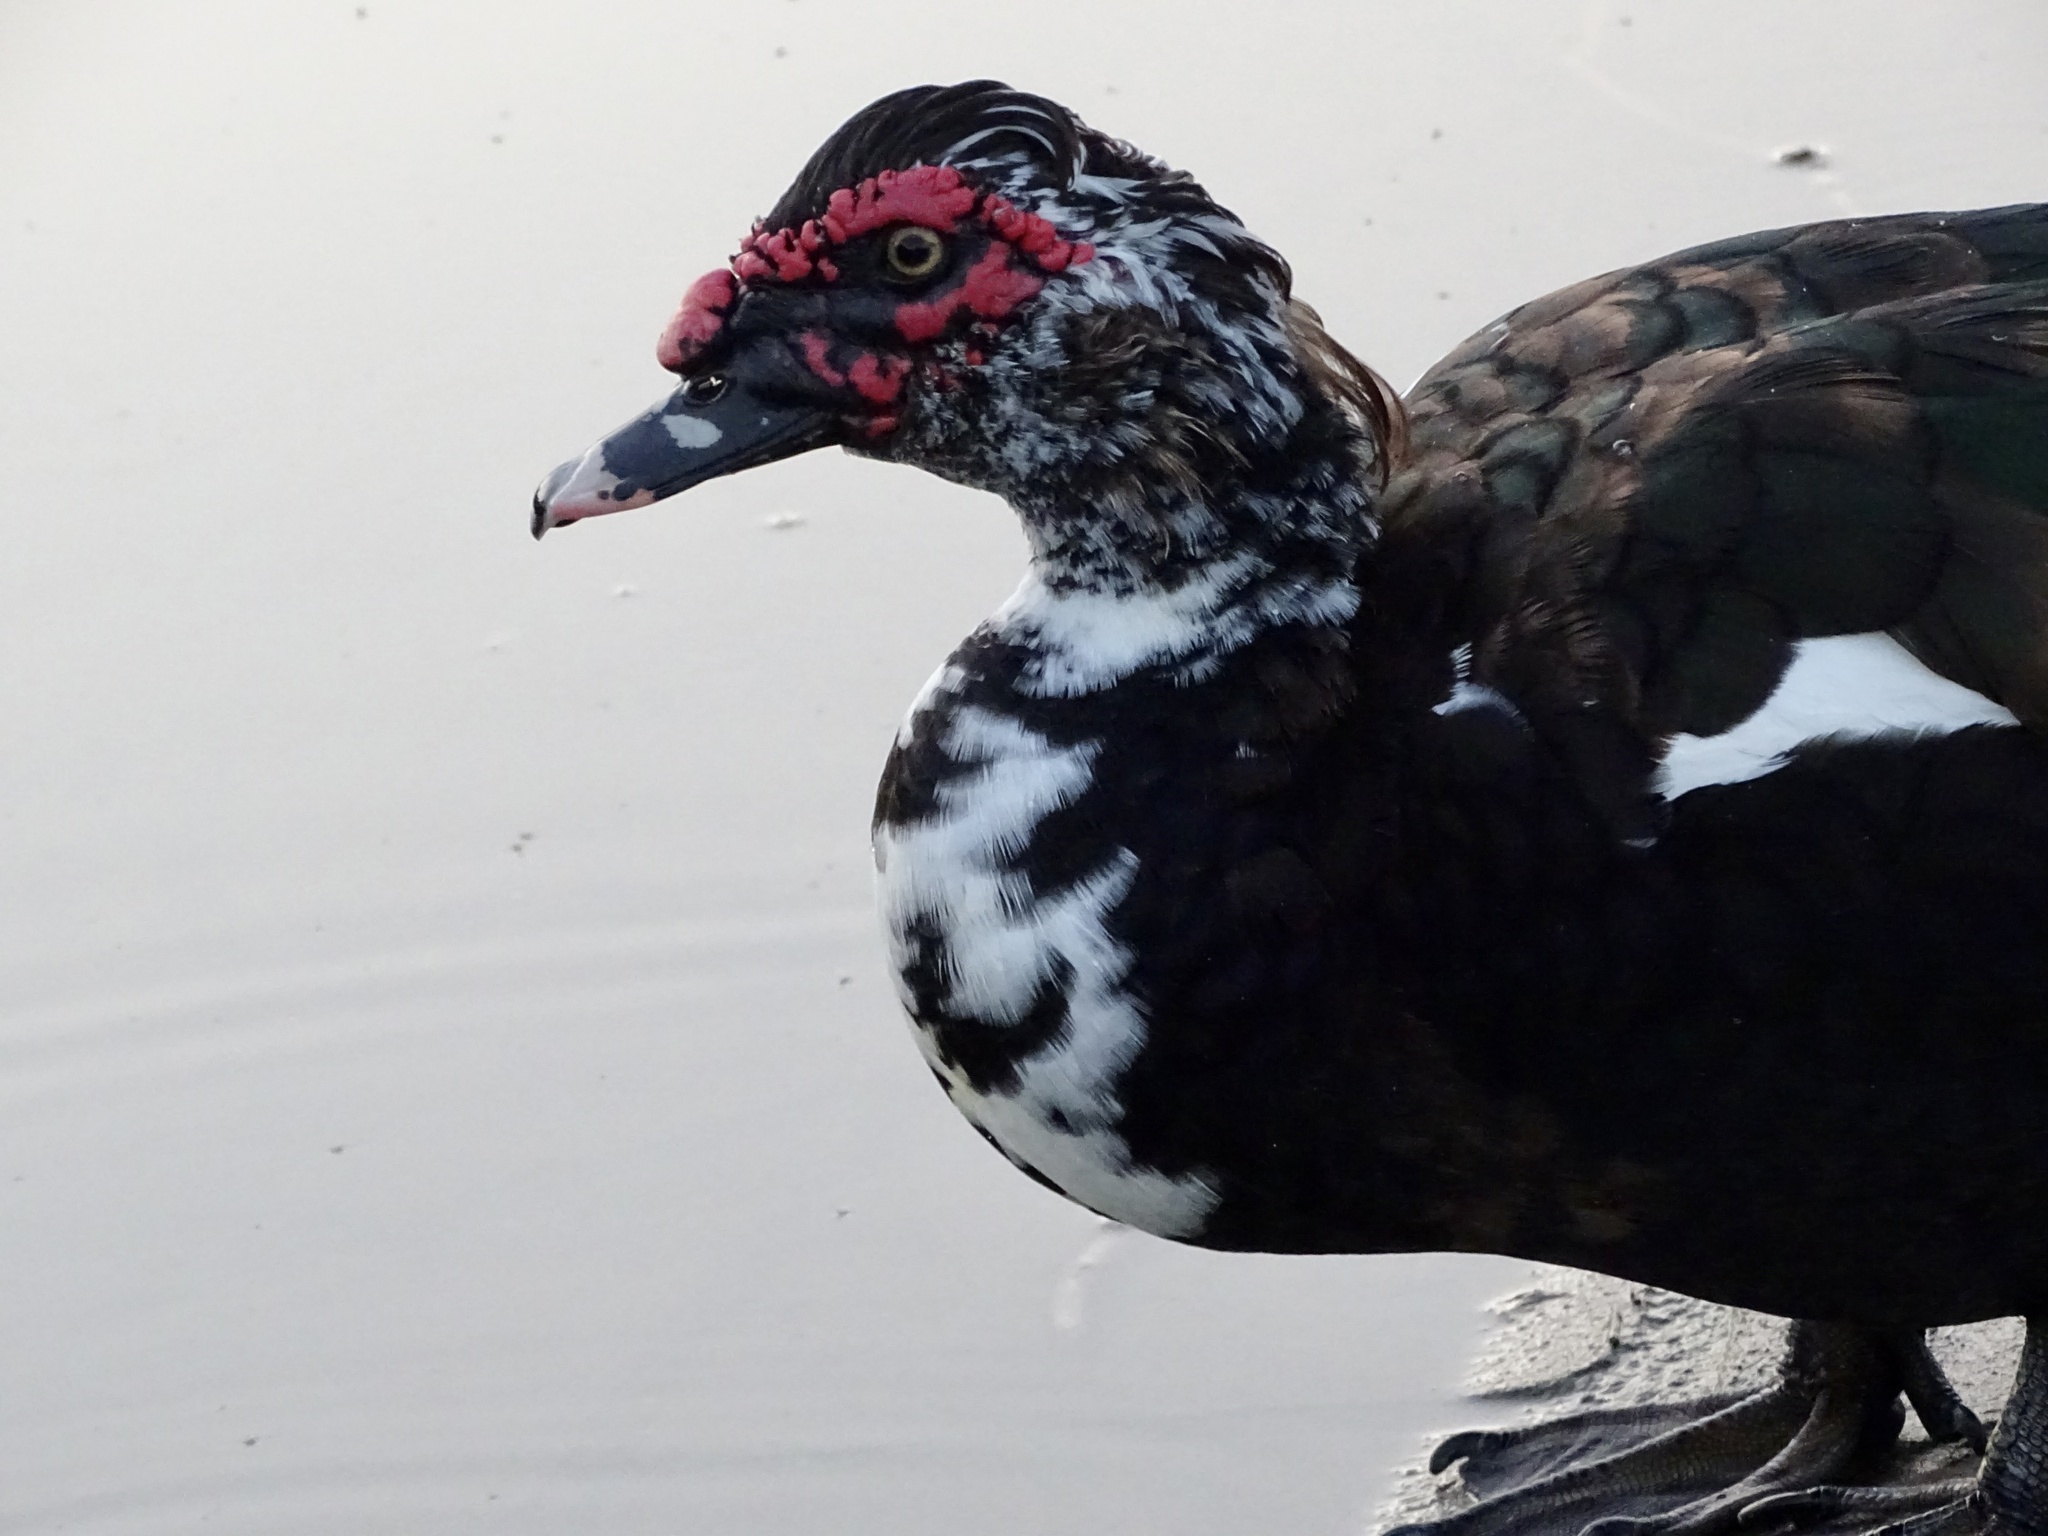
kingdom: Animalia
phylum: Chordata
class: Aves
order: Anseriformes
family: Anatidae
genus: Cairina
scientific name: Cairina moschata
